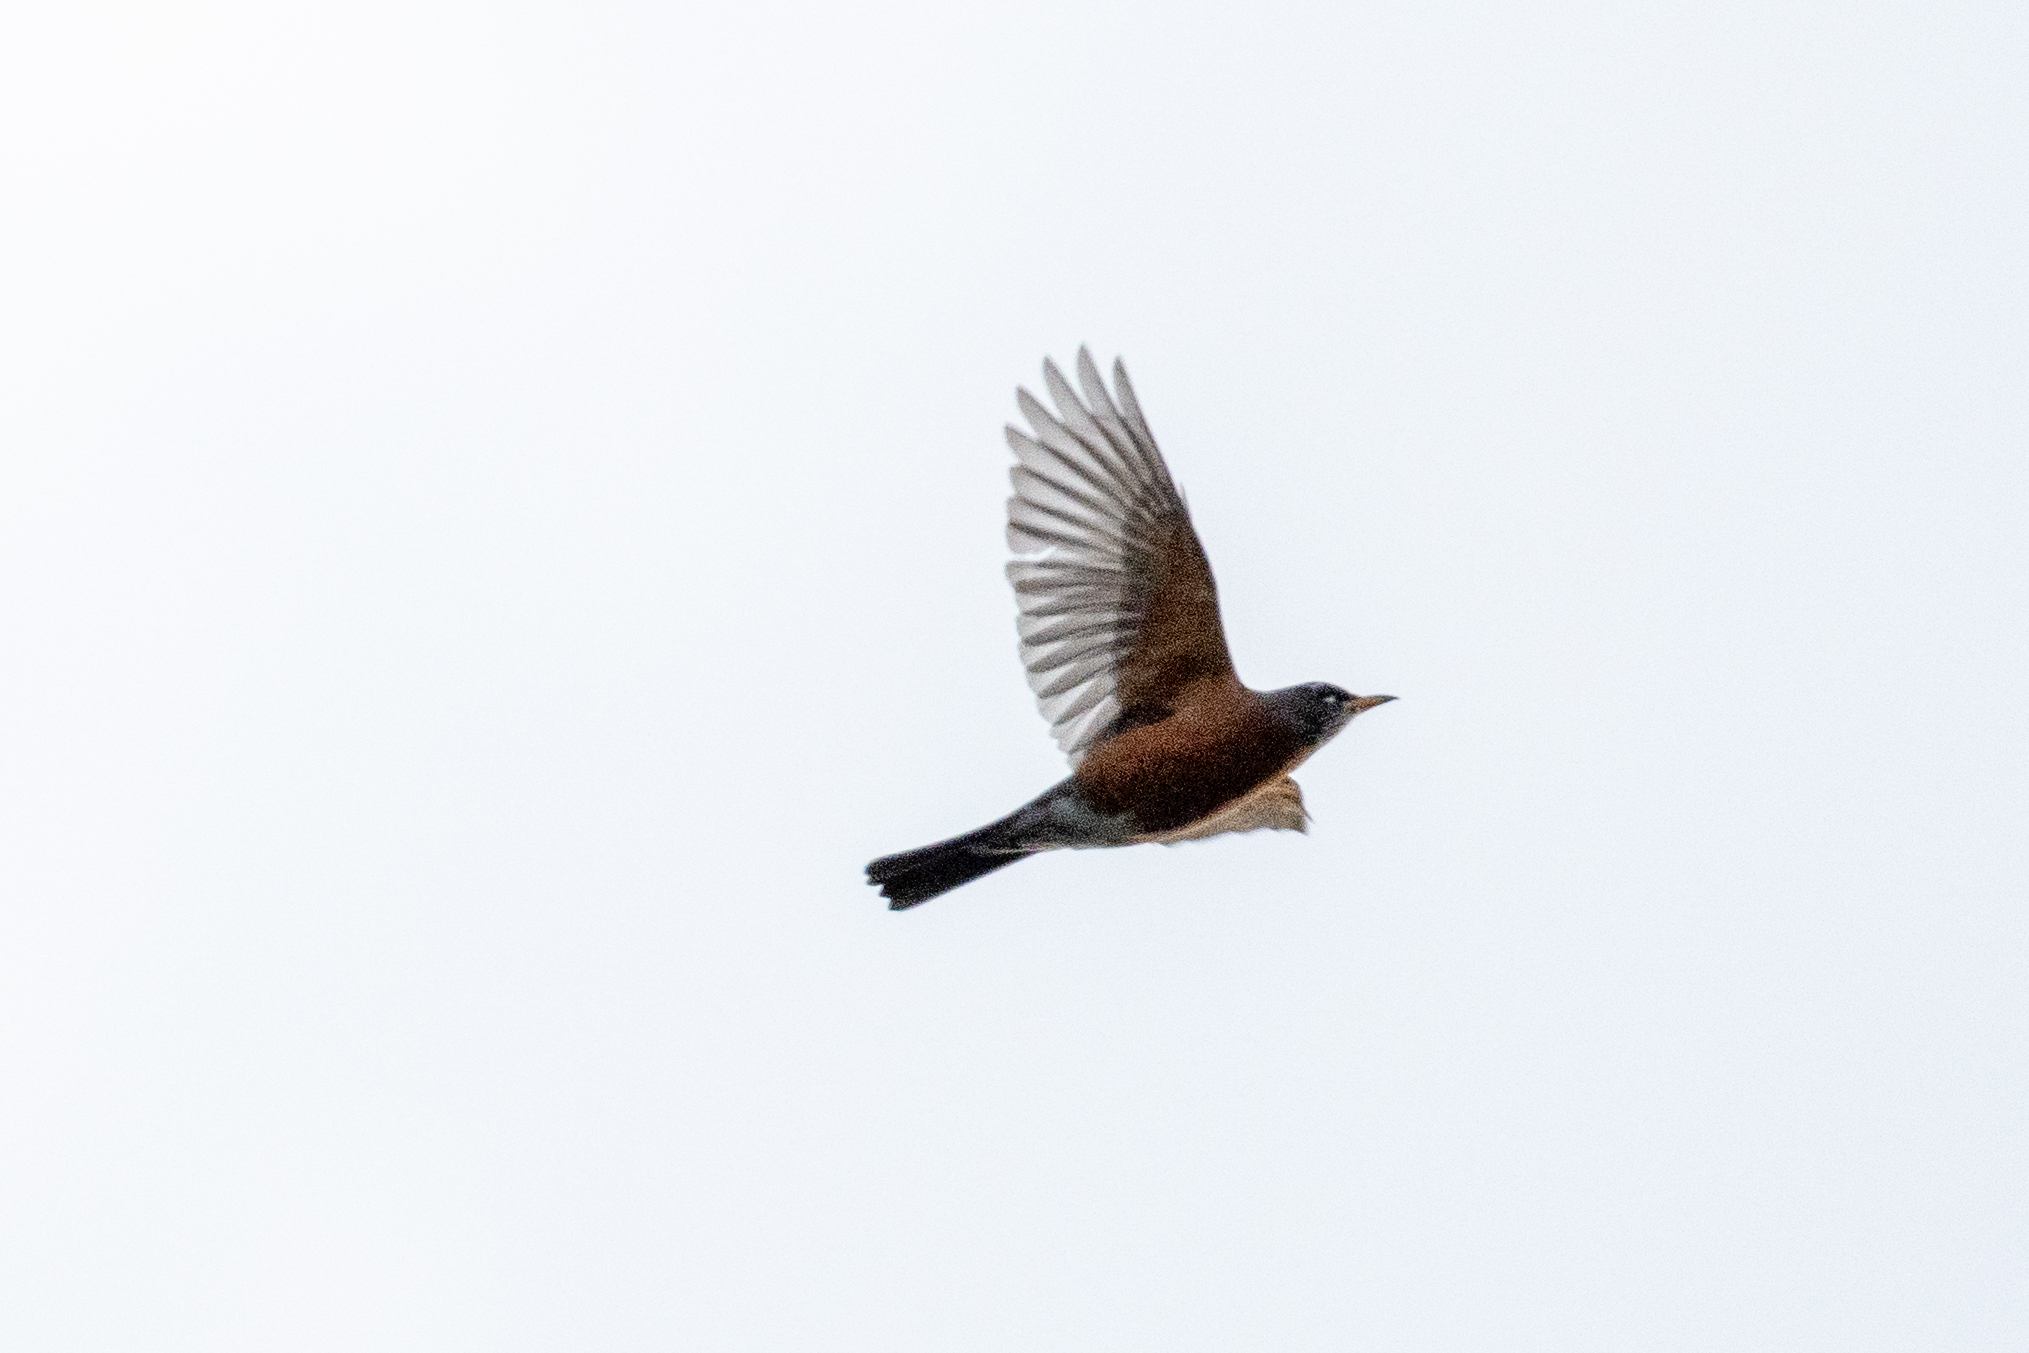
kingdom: Animalia
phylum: Chordata
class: Aves
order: Passeriformes
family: Turdidae
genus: Turdus
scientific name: Turdus migratorius
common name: American robin
